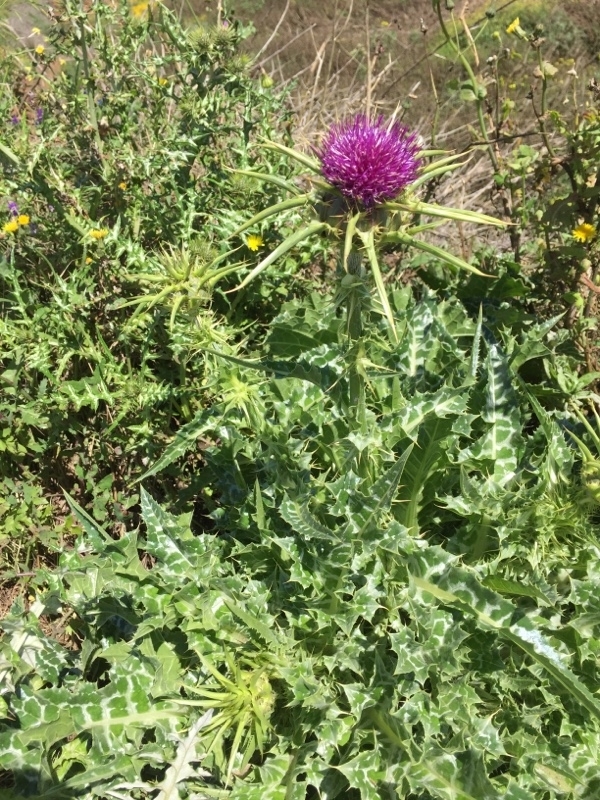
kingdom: Plantae
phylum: Tracheophyta
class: Magnoliopsida
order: Asterales
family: Asteraceae
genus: Silybum
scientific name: Silybum marianum
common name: Milk thistle
